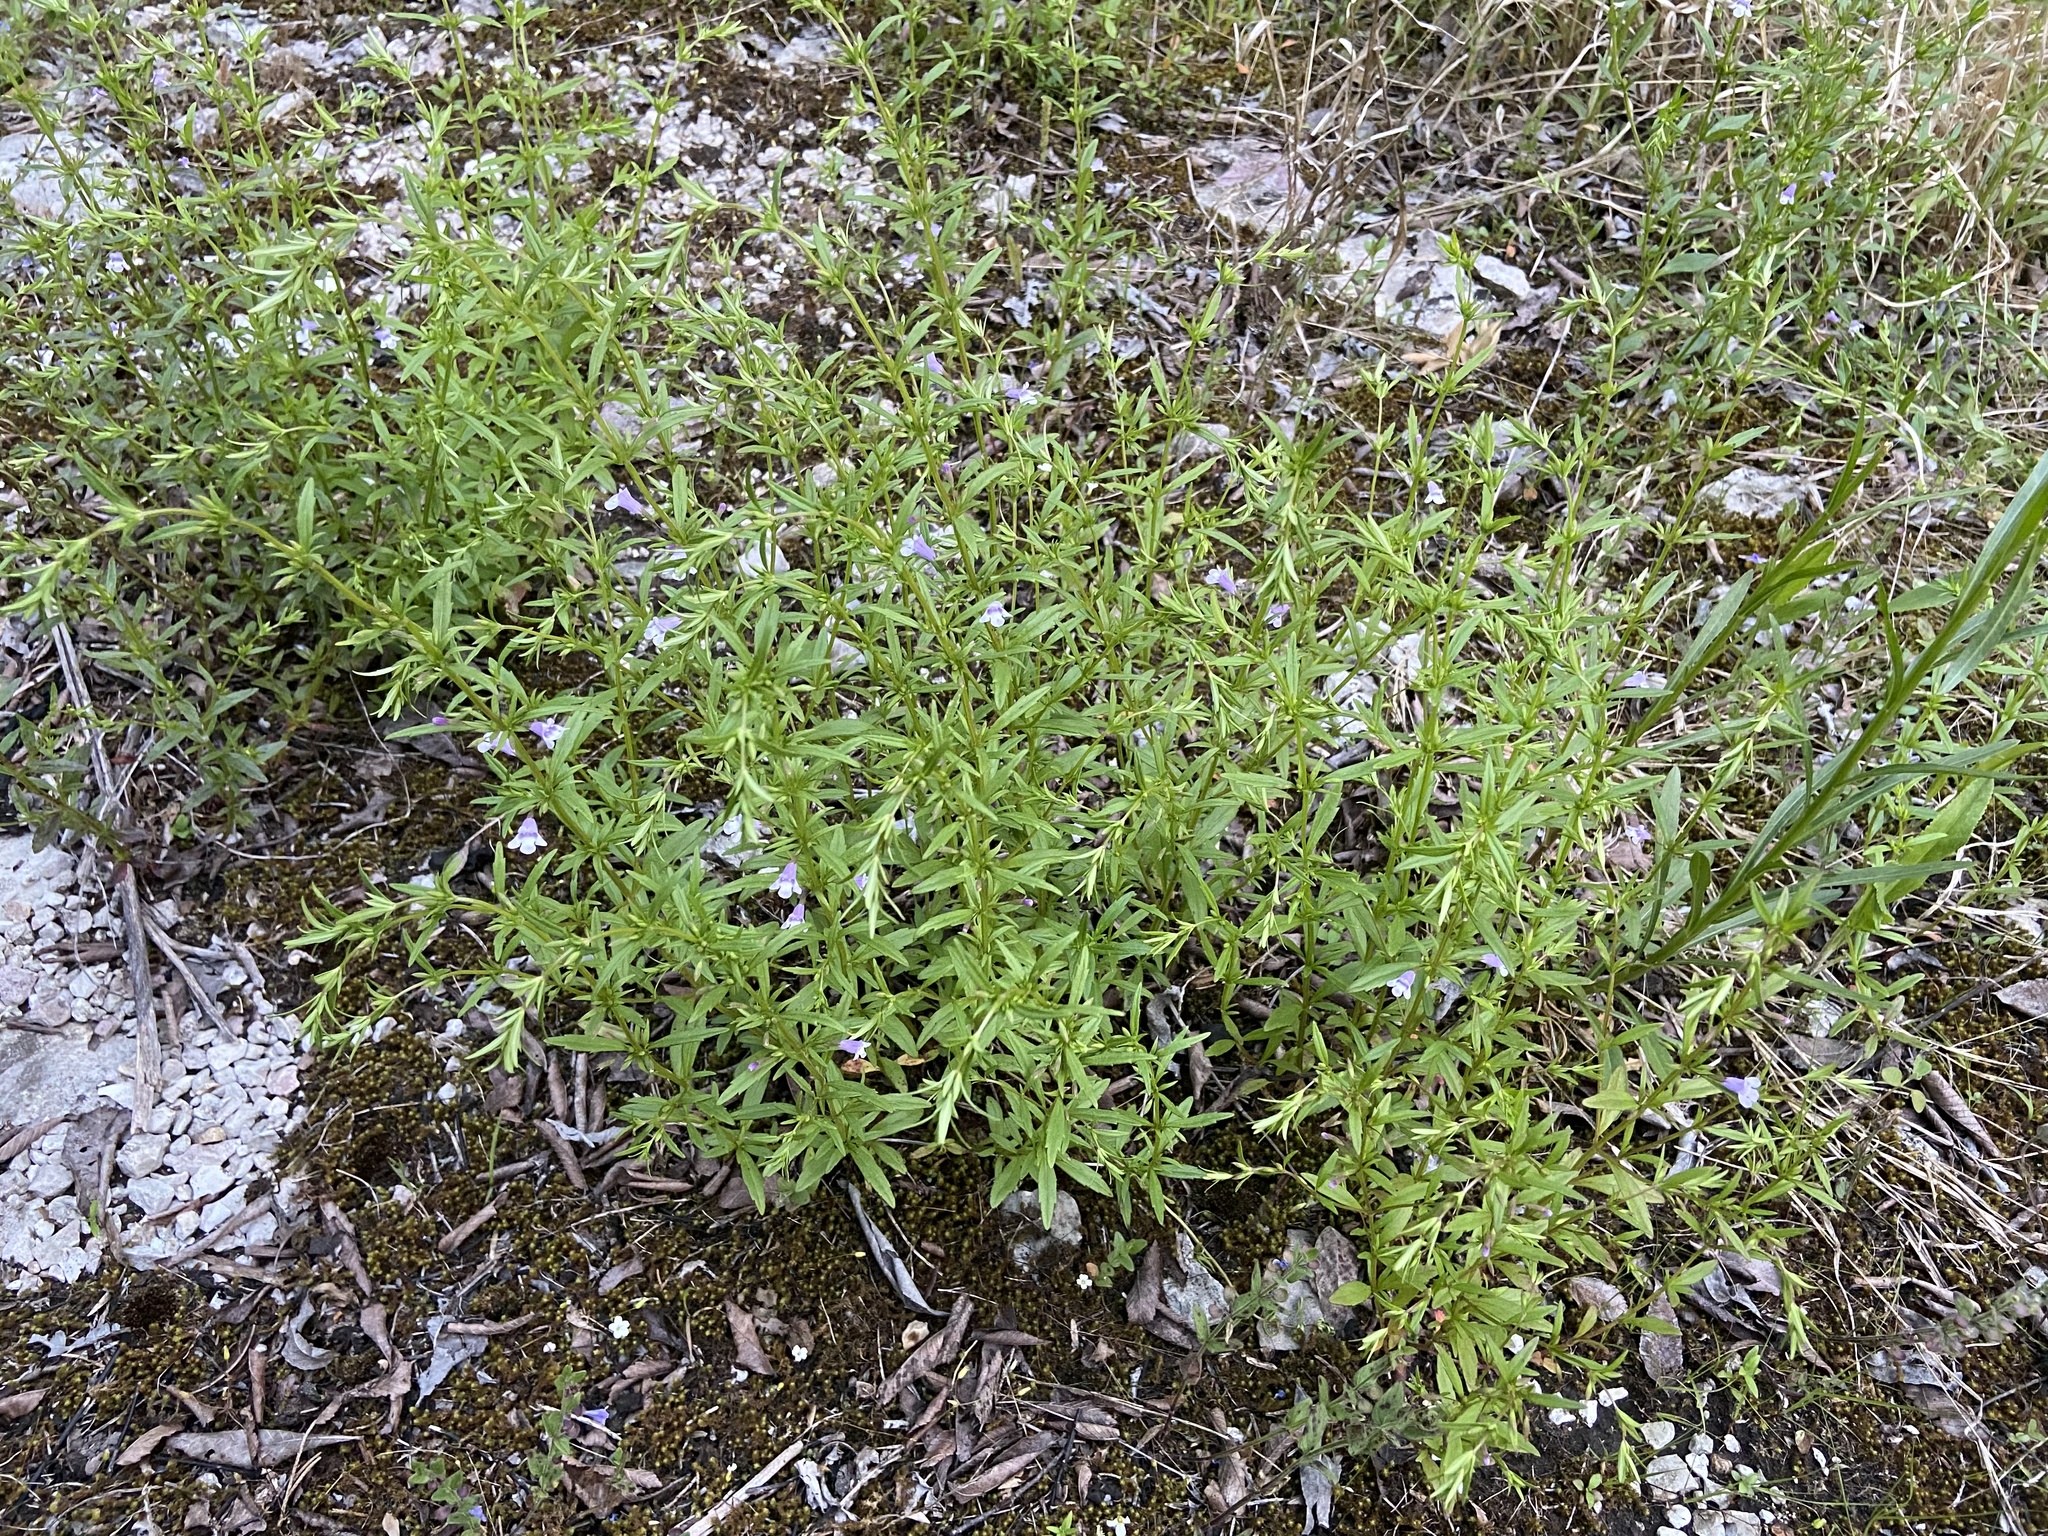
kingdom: Plantae
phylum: Tracheophyta
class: Magnoliopsida
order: Lamiales
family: Lamiaceae
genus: Clinopodium
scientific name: Clinopodium glabellum
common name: Ozark calamint
